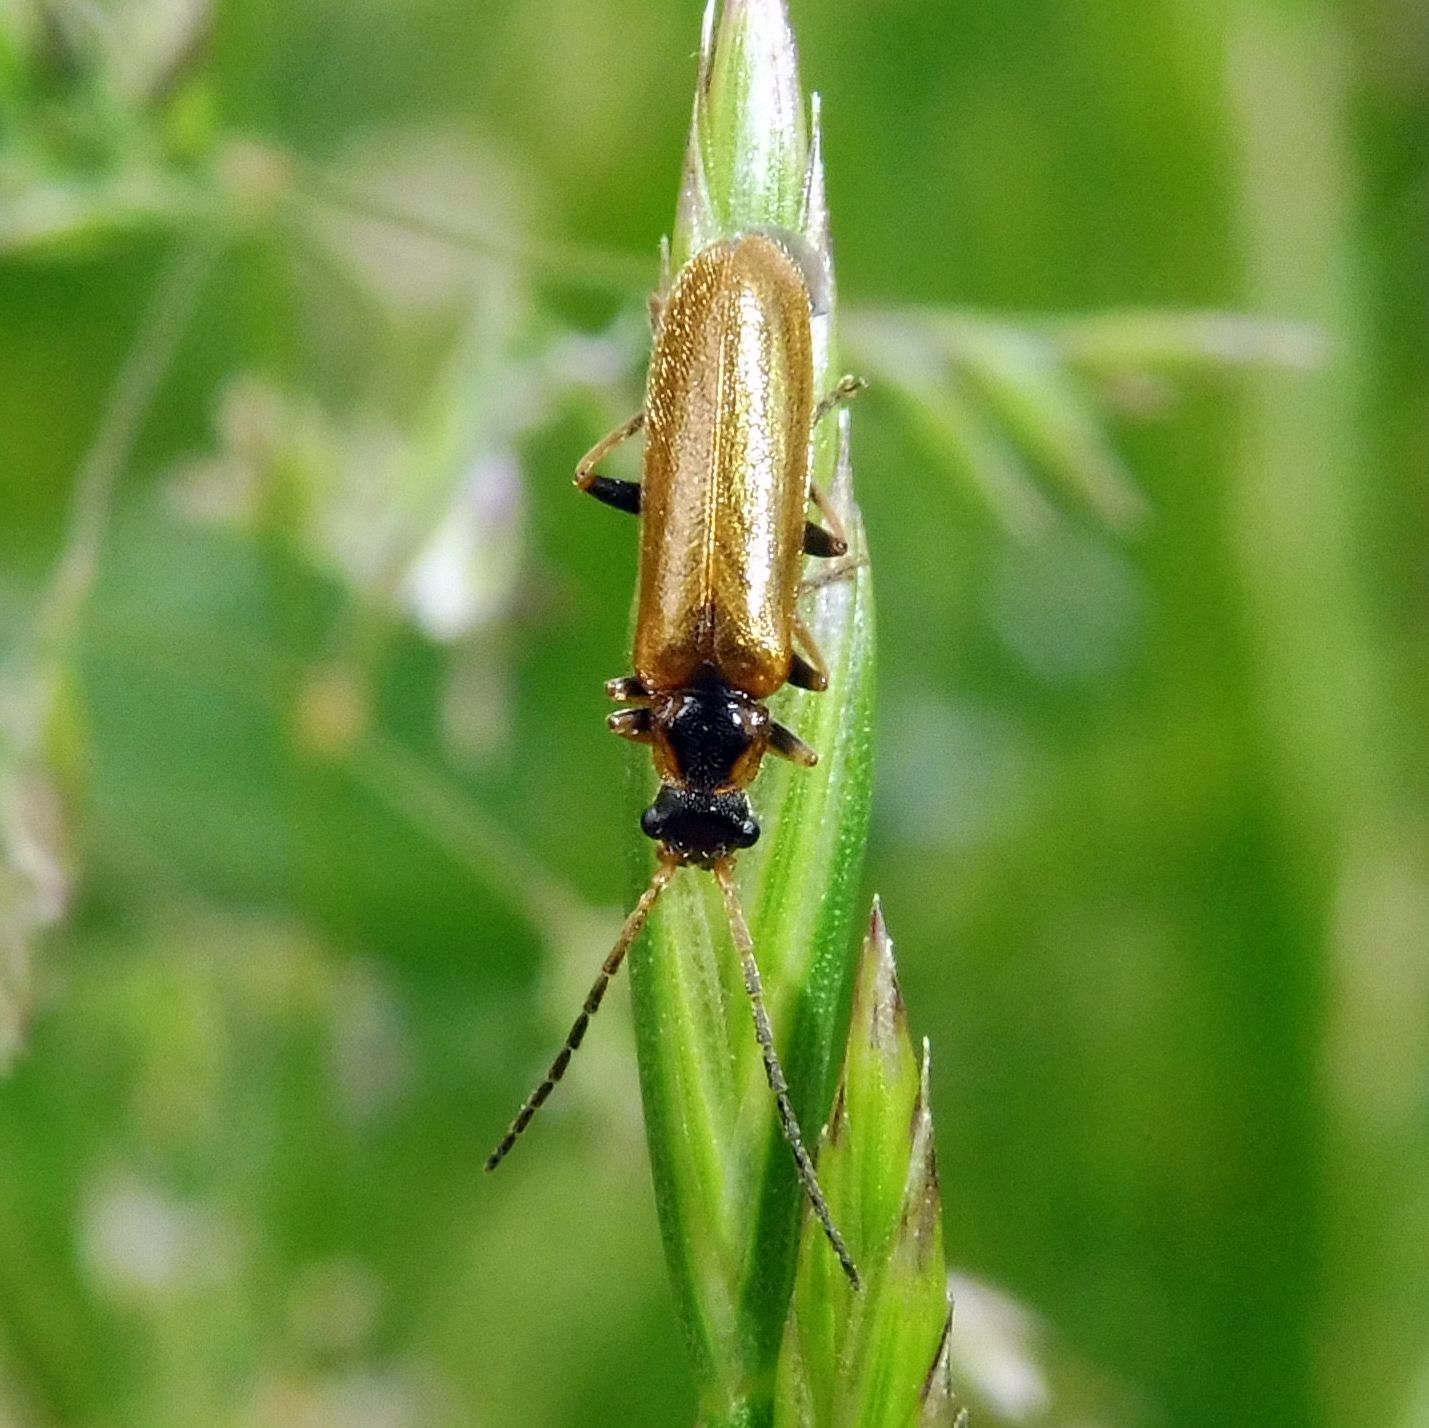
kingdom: Animalia
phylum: Arthropoda
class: Insecta
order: Coleoptera
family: Cantharidae
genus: Rhagonycha
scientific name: Rhagonycha nigriventris
